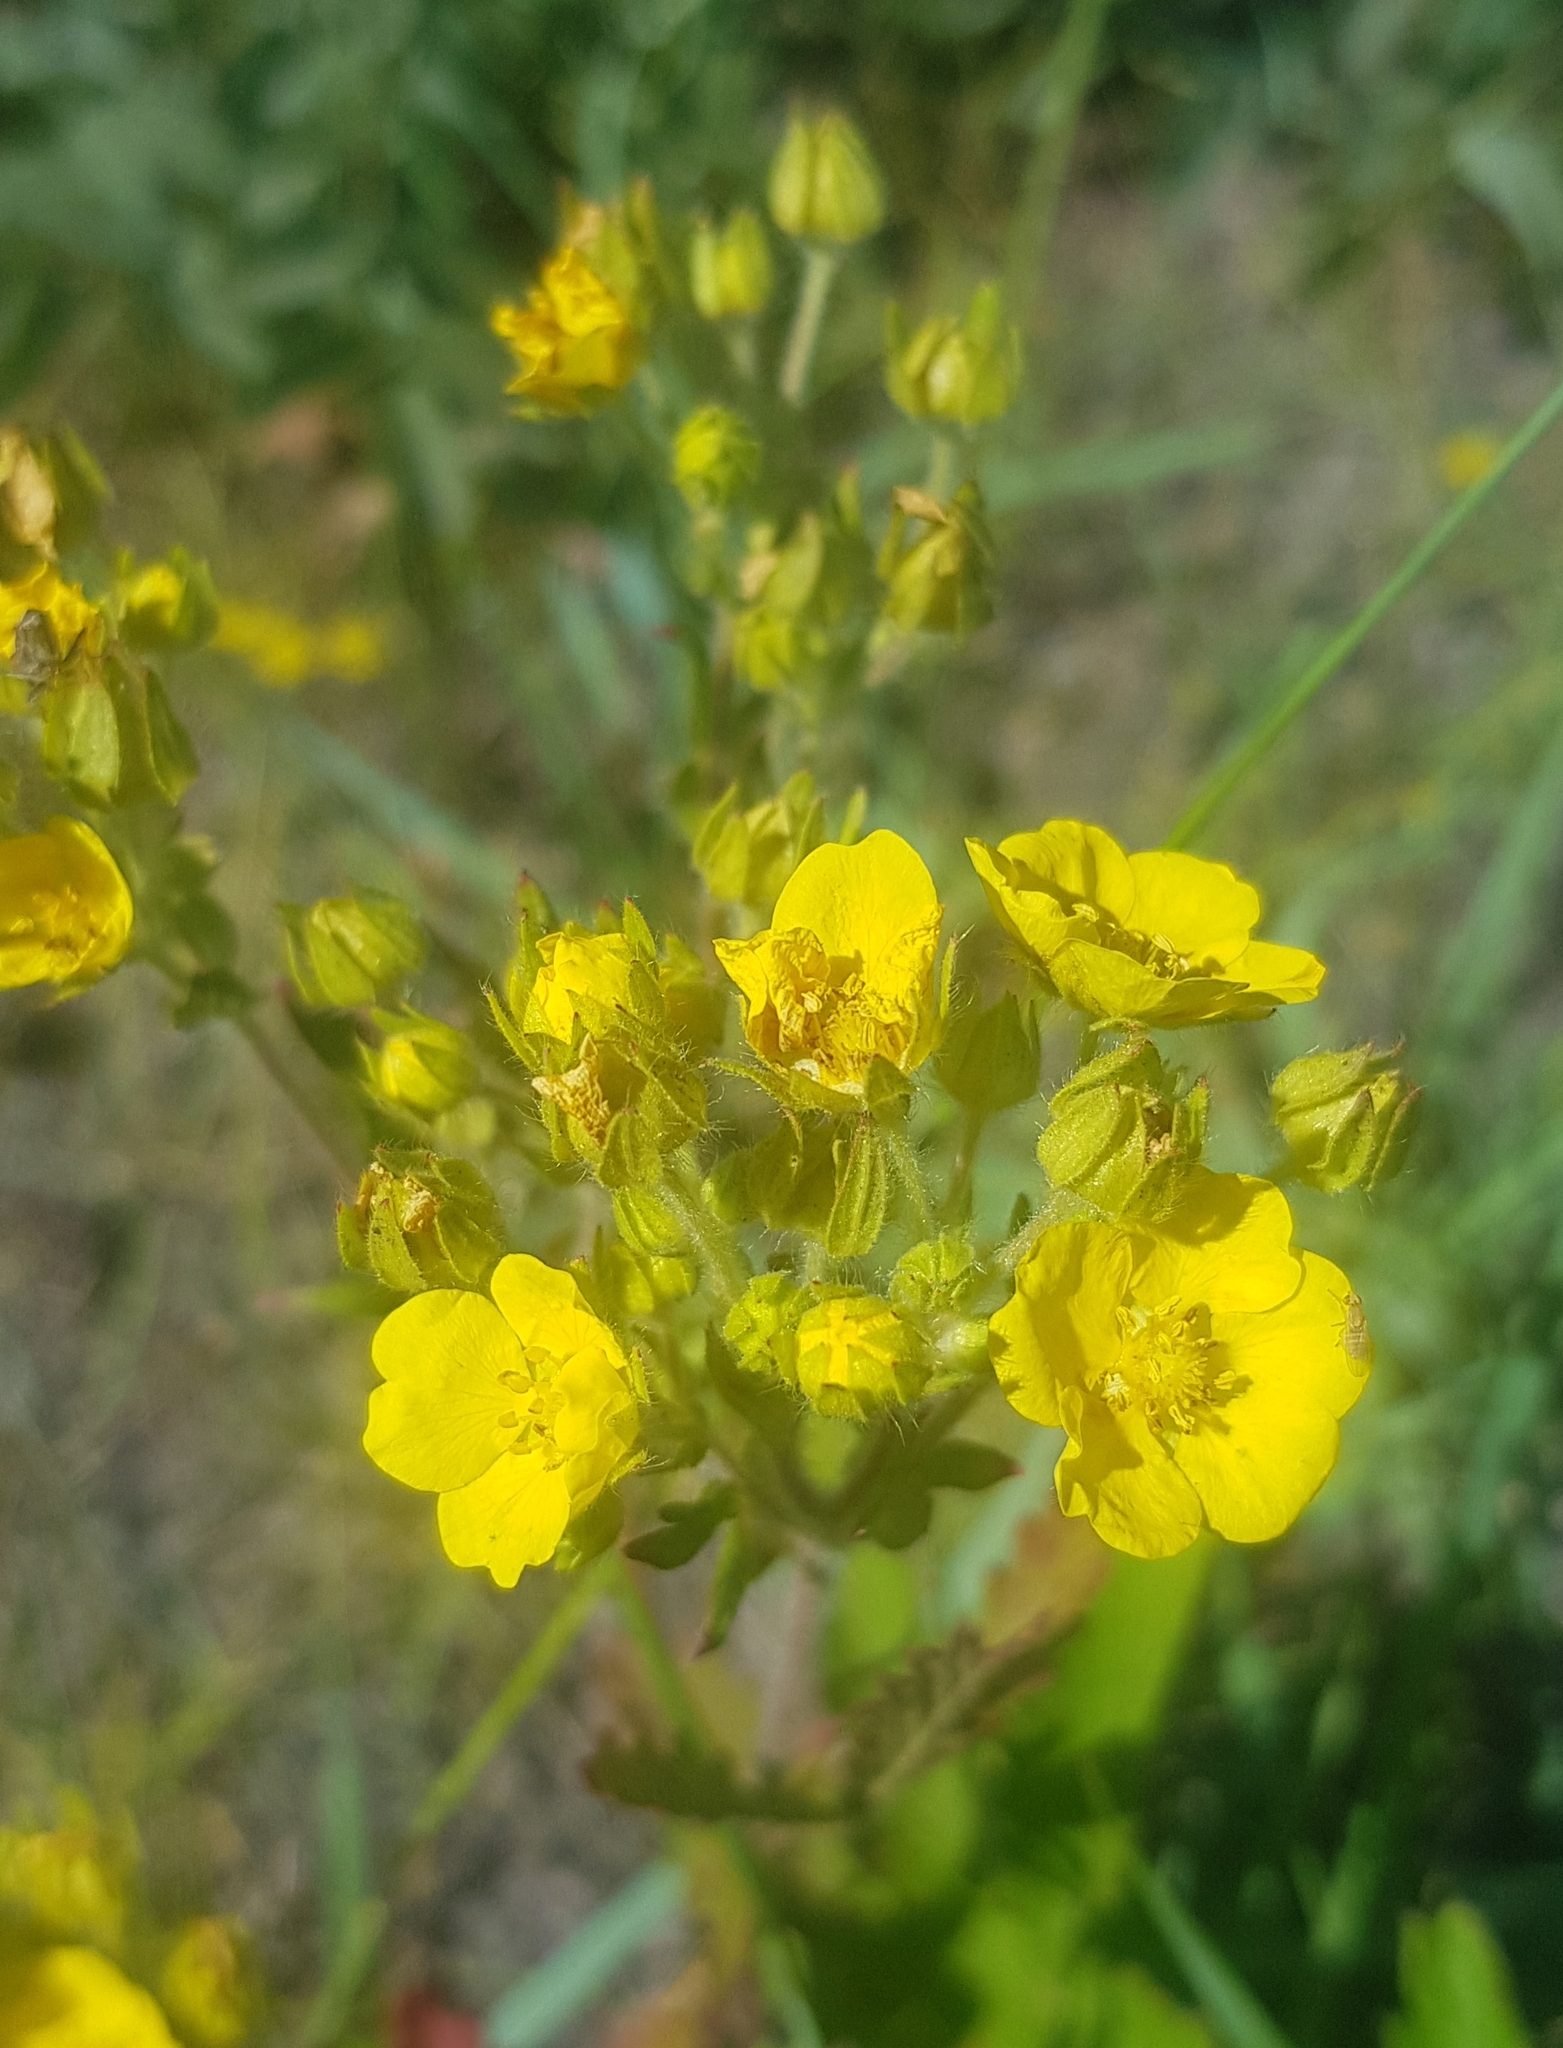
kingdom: Plantae
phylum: Tracheophyta
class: Magnoliopsida
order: Rosales
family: Rosaceae
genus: Potentilla
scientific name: Potentilla tanacetifolia
